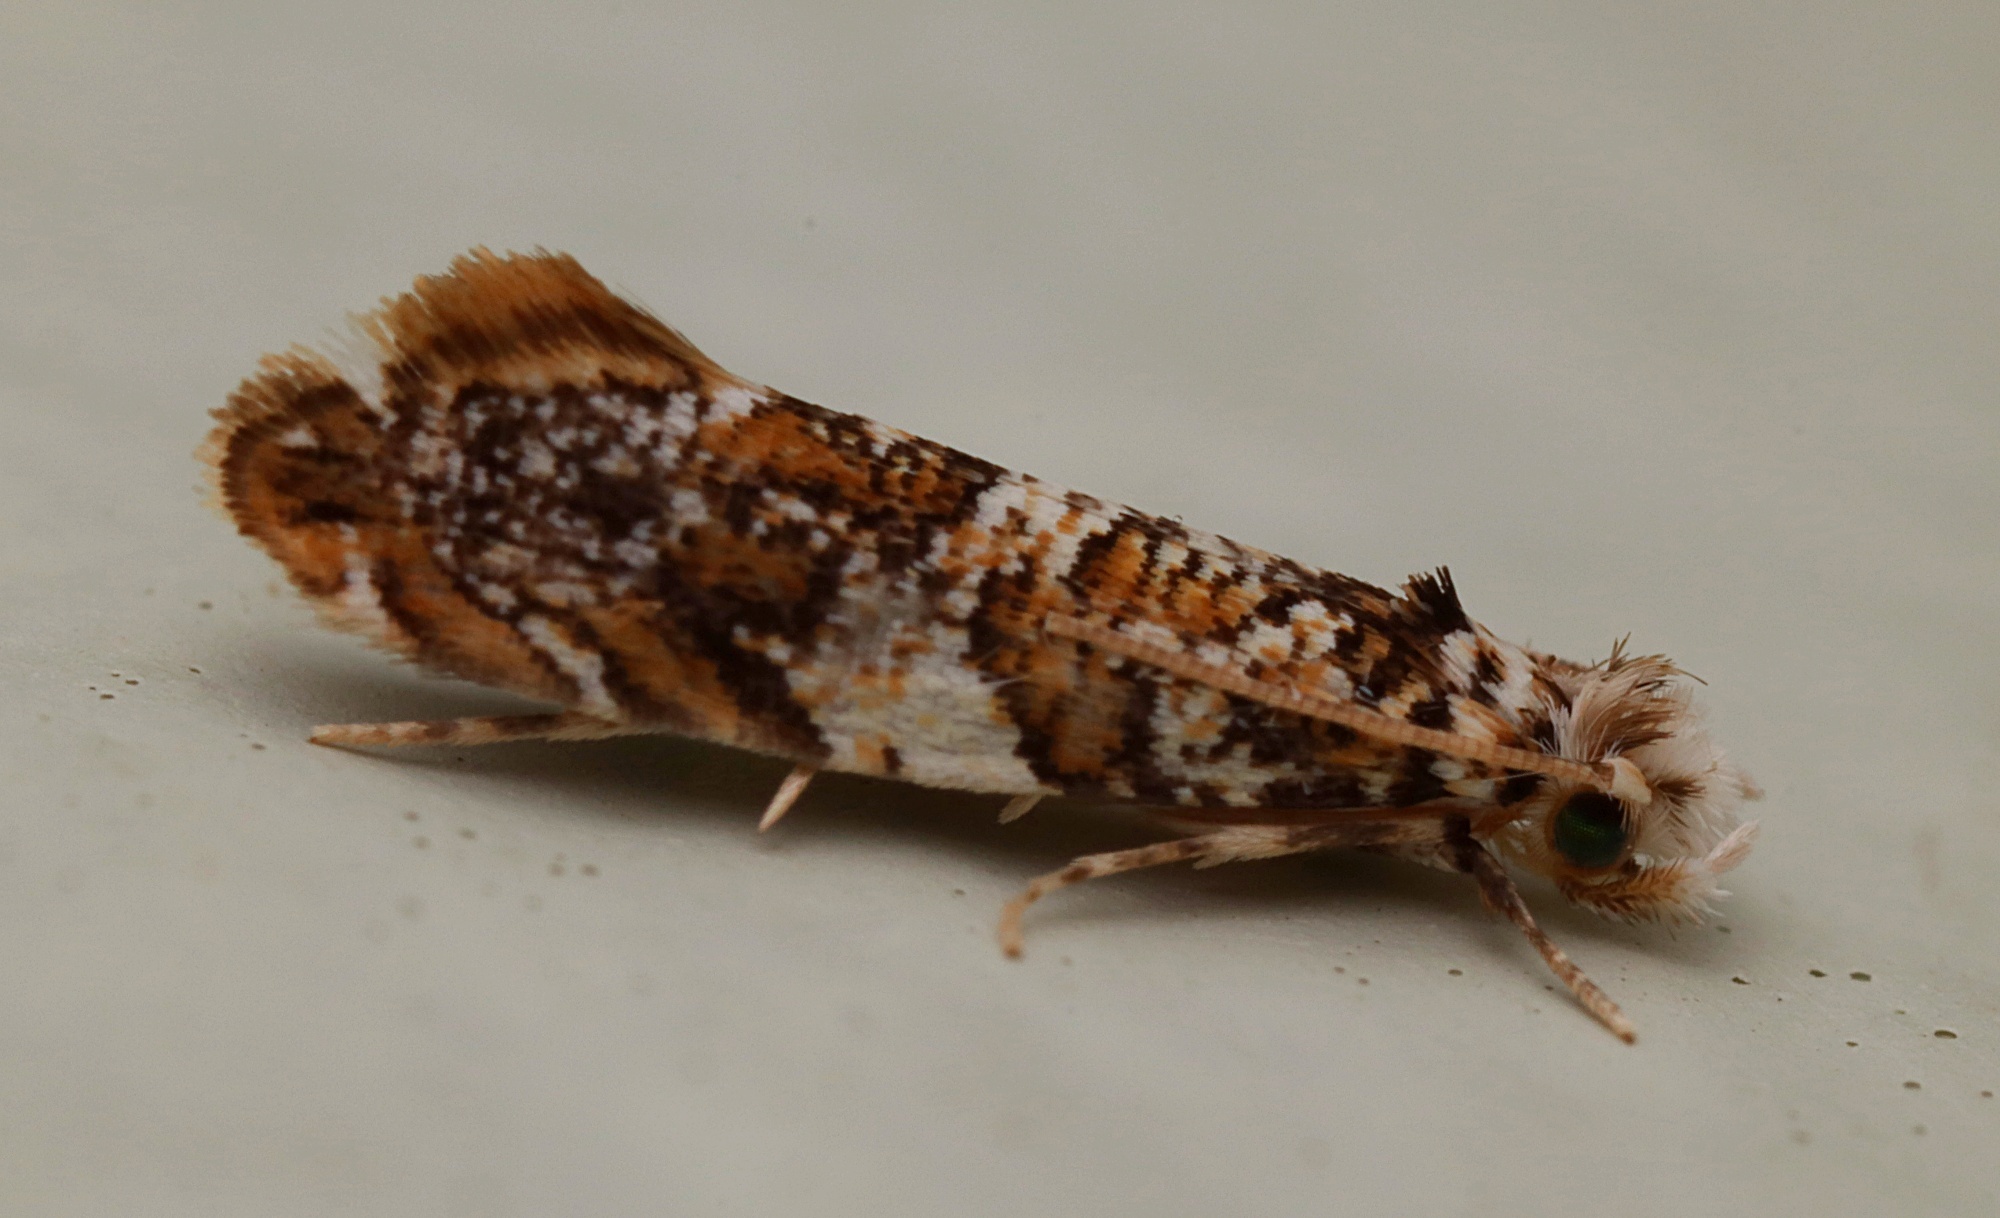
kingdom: Animalia
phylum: Arthropoda
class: Insecta
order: Lepidoptera
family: Tineidae
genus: Eschatotypa
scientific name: Eschatotypa derogatella
